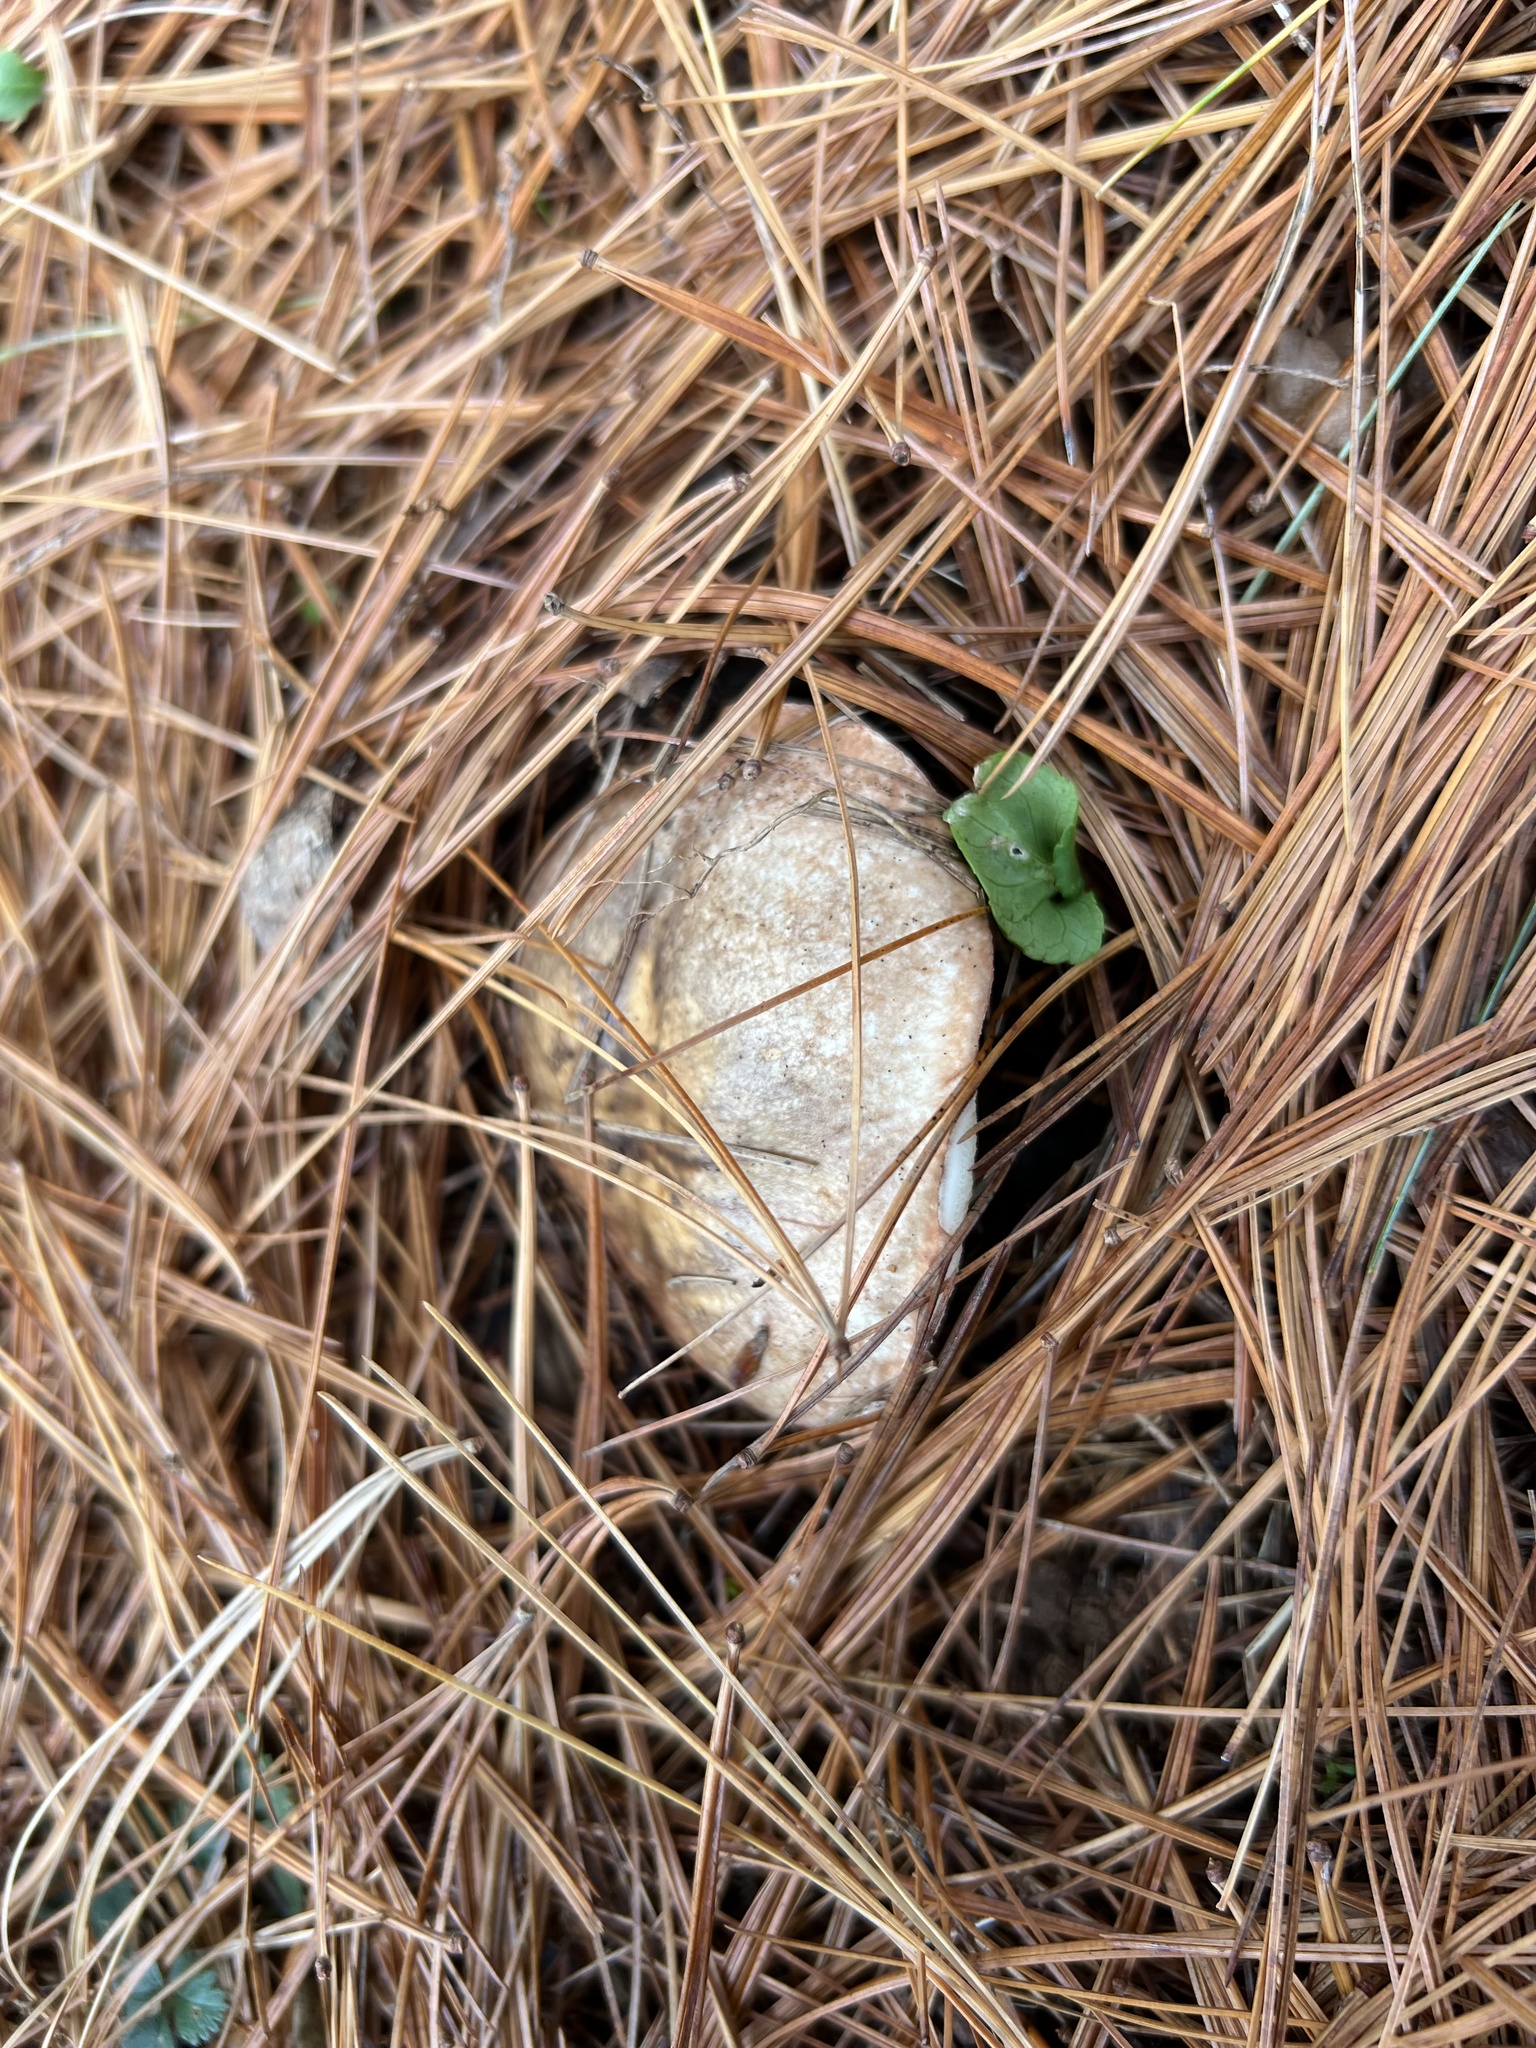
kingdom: Fungi
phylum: Basidiomycota
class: Agaricomycetes
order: Boletales
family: Suillaceae
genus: Fuscoboletinus
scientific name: Fuscoboletinus weaverae
